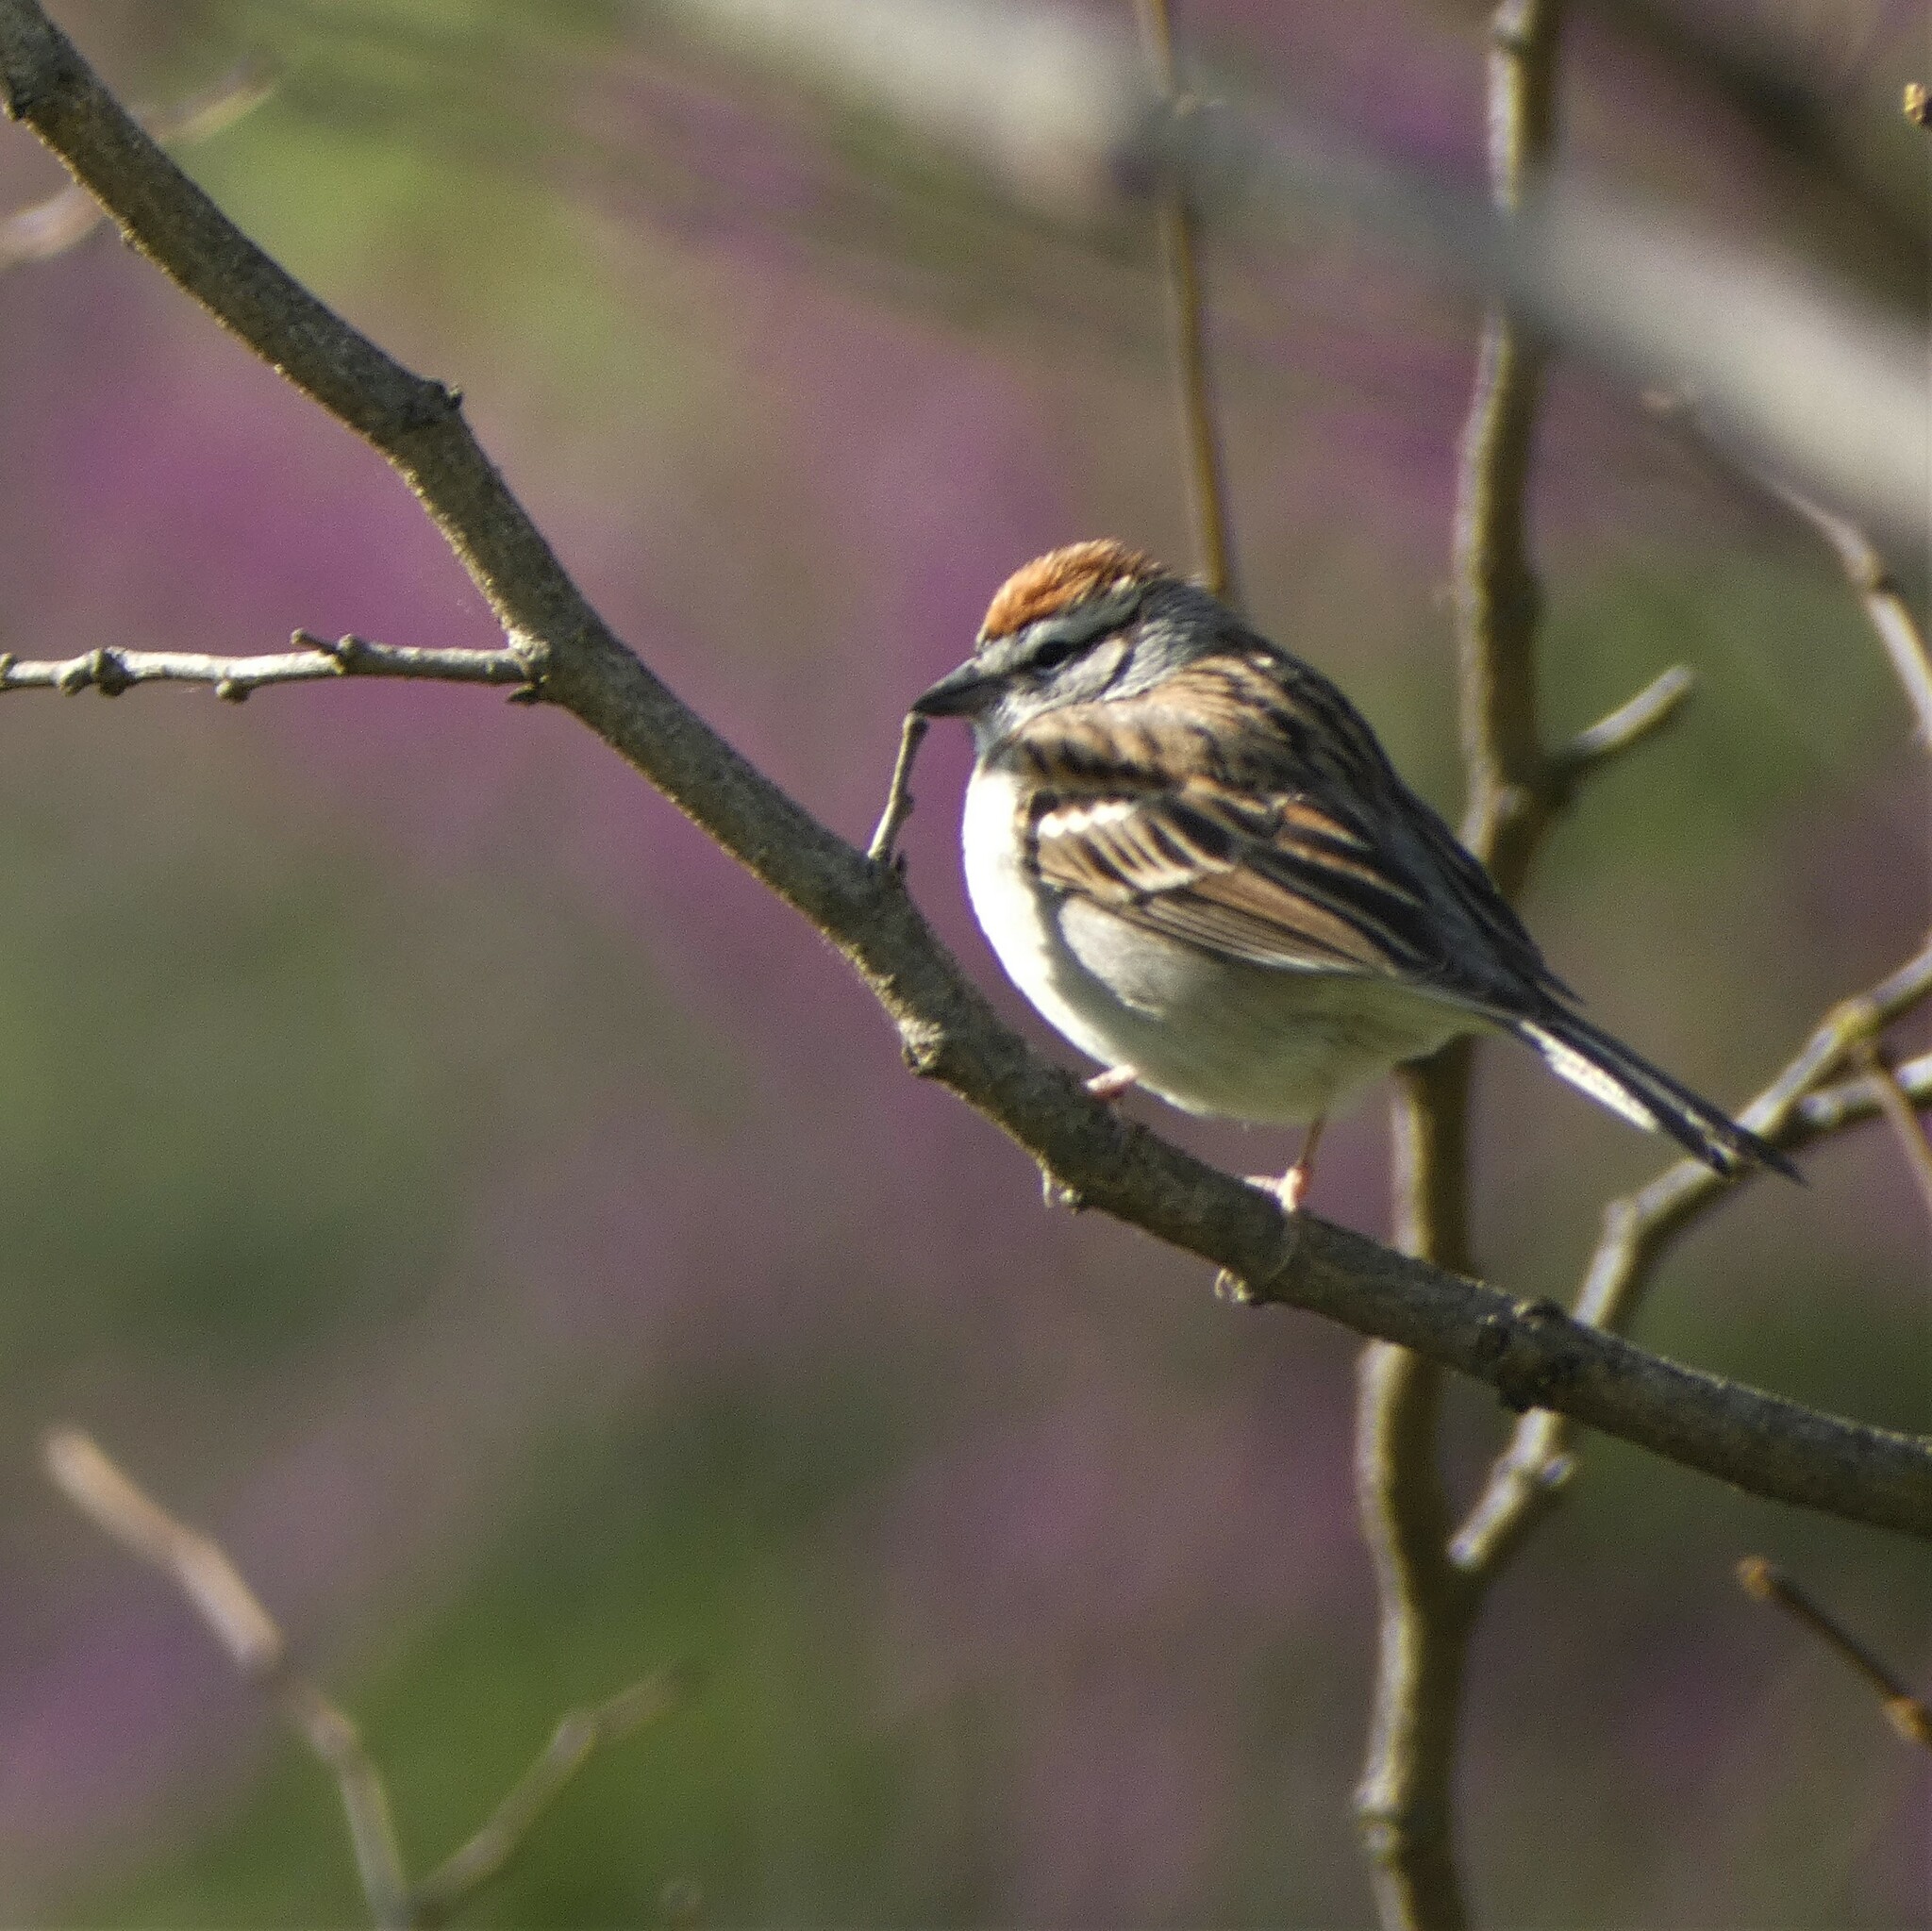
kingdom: Animalia
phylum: Chordata
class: Aves
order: Passeriformes
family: Passerellidae
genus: Spizella
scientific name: Spizella passerina
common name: Chipping sparrow
